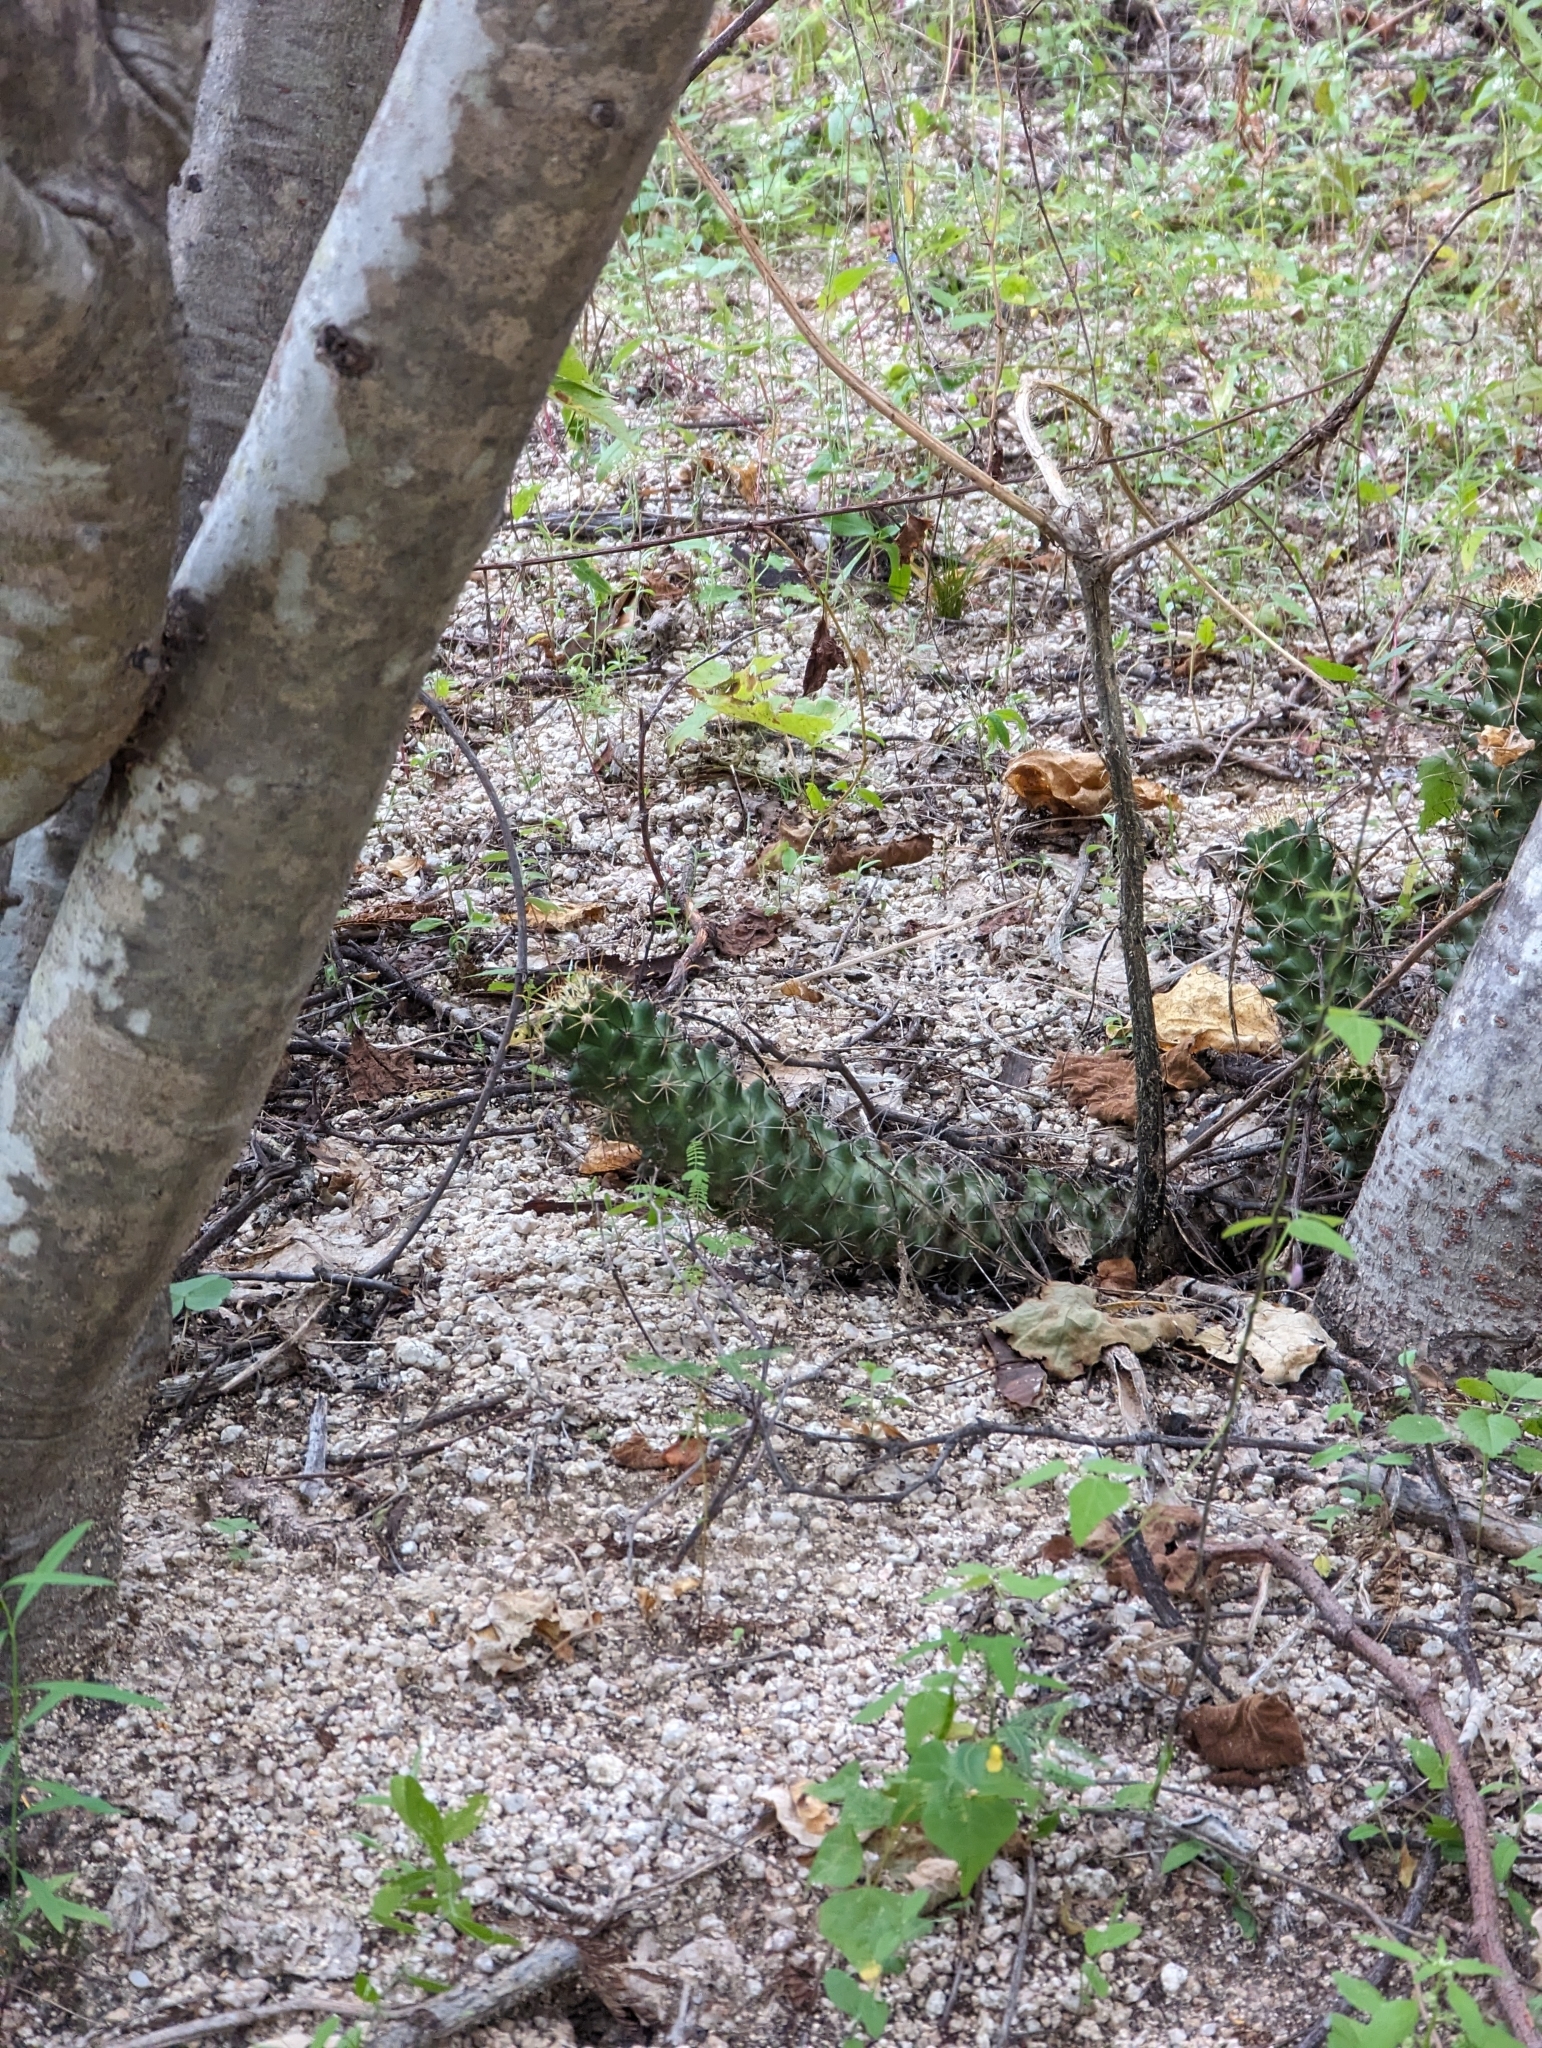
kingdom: Plantae
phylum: Tracheophyta
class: Magnoliopsida
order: Caryophyllales
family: Cactaceae
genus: Cochemiea
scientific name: Cochemiea poselgeri
